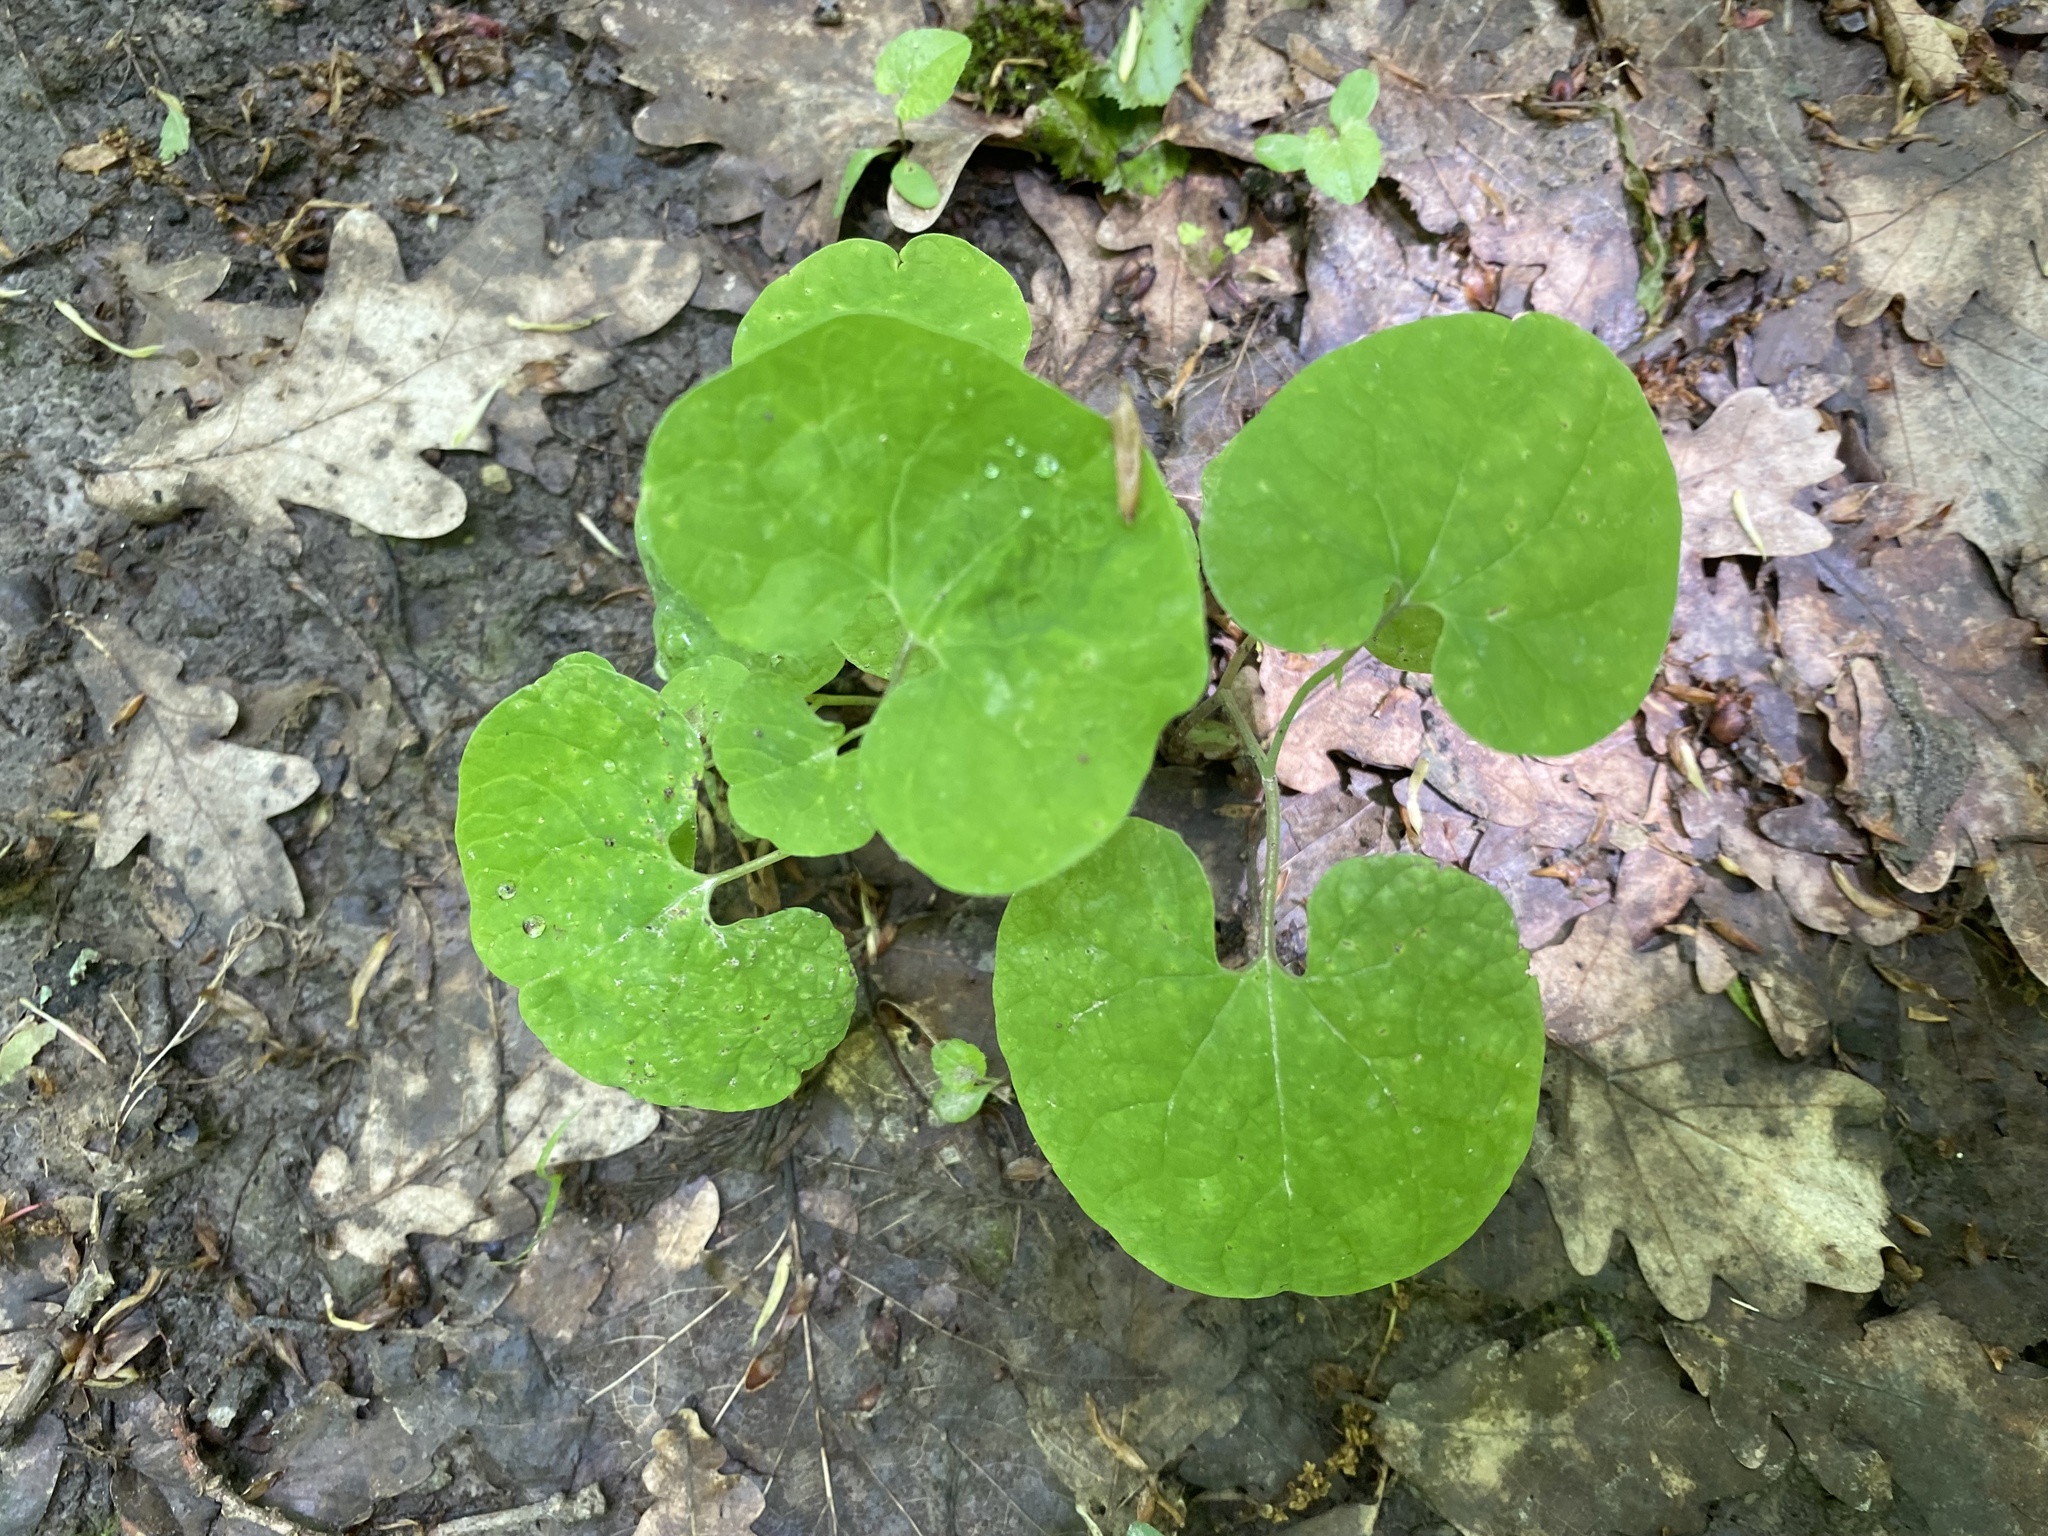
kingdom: Plantae
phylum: Tracheophyta
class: Magnoliopsida
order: Piperales
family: Aristolochiaceae
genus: Aristolochia
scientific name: Aristolochia steupii
